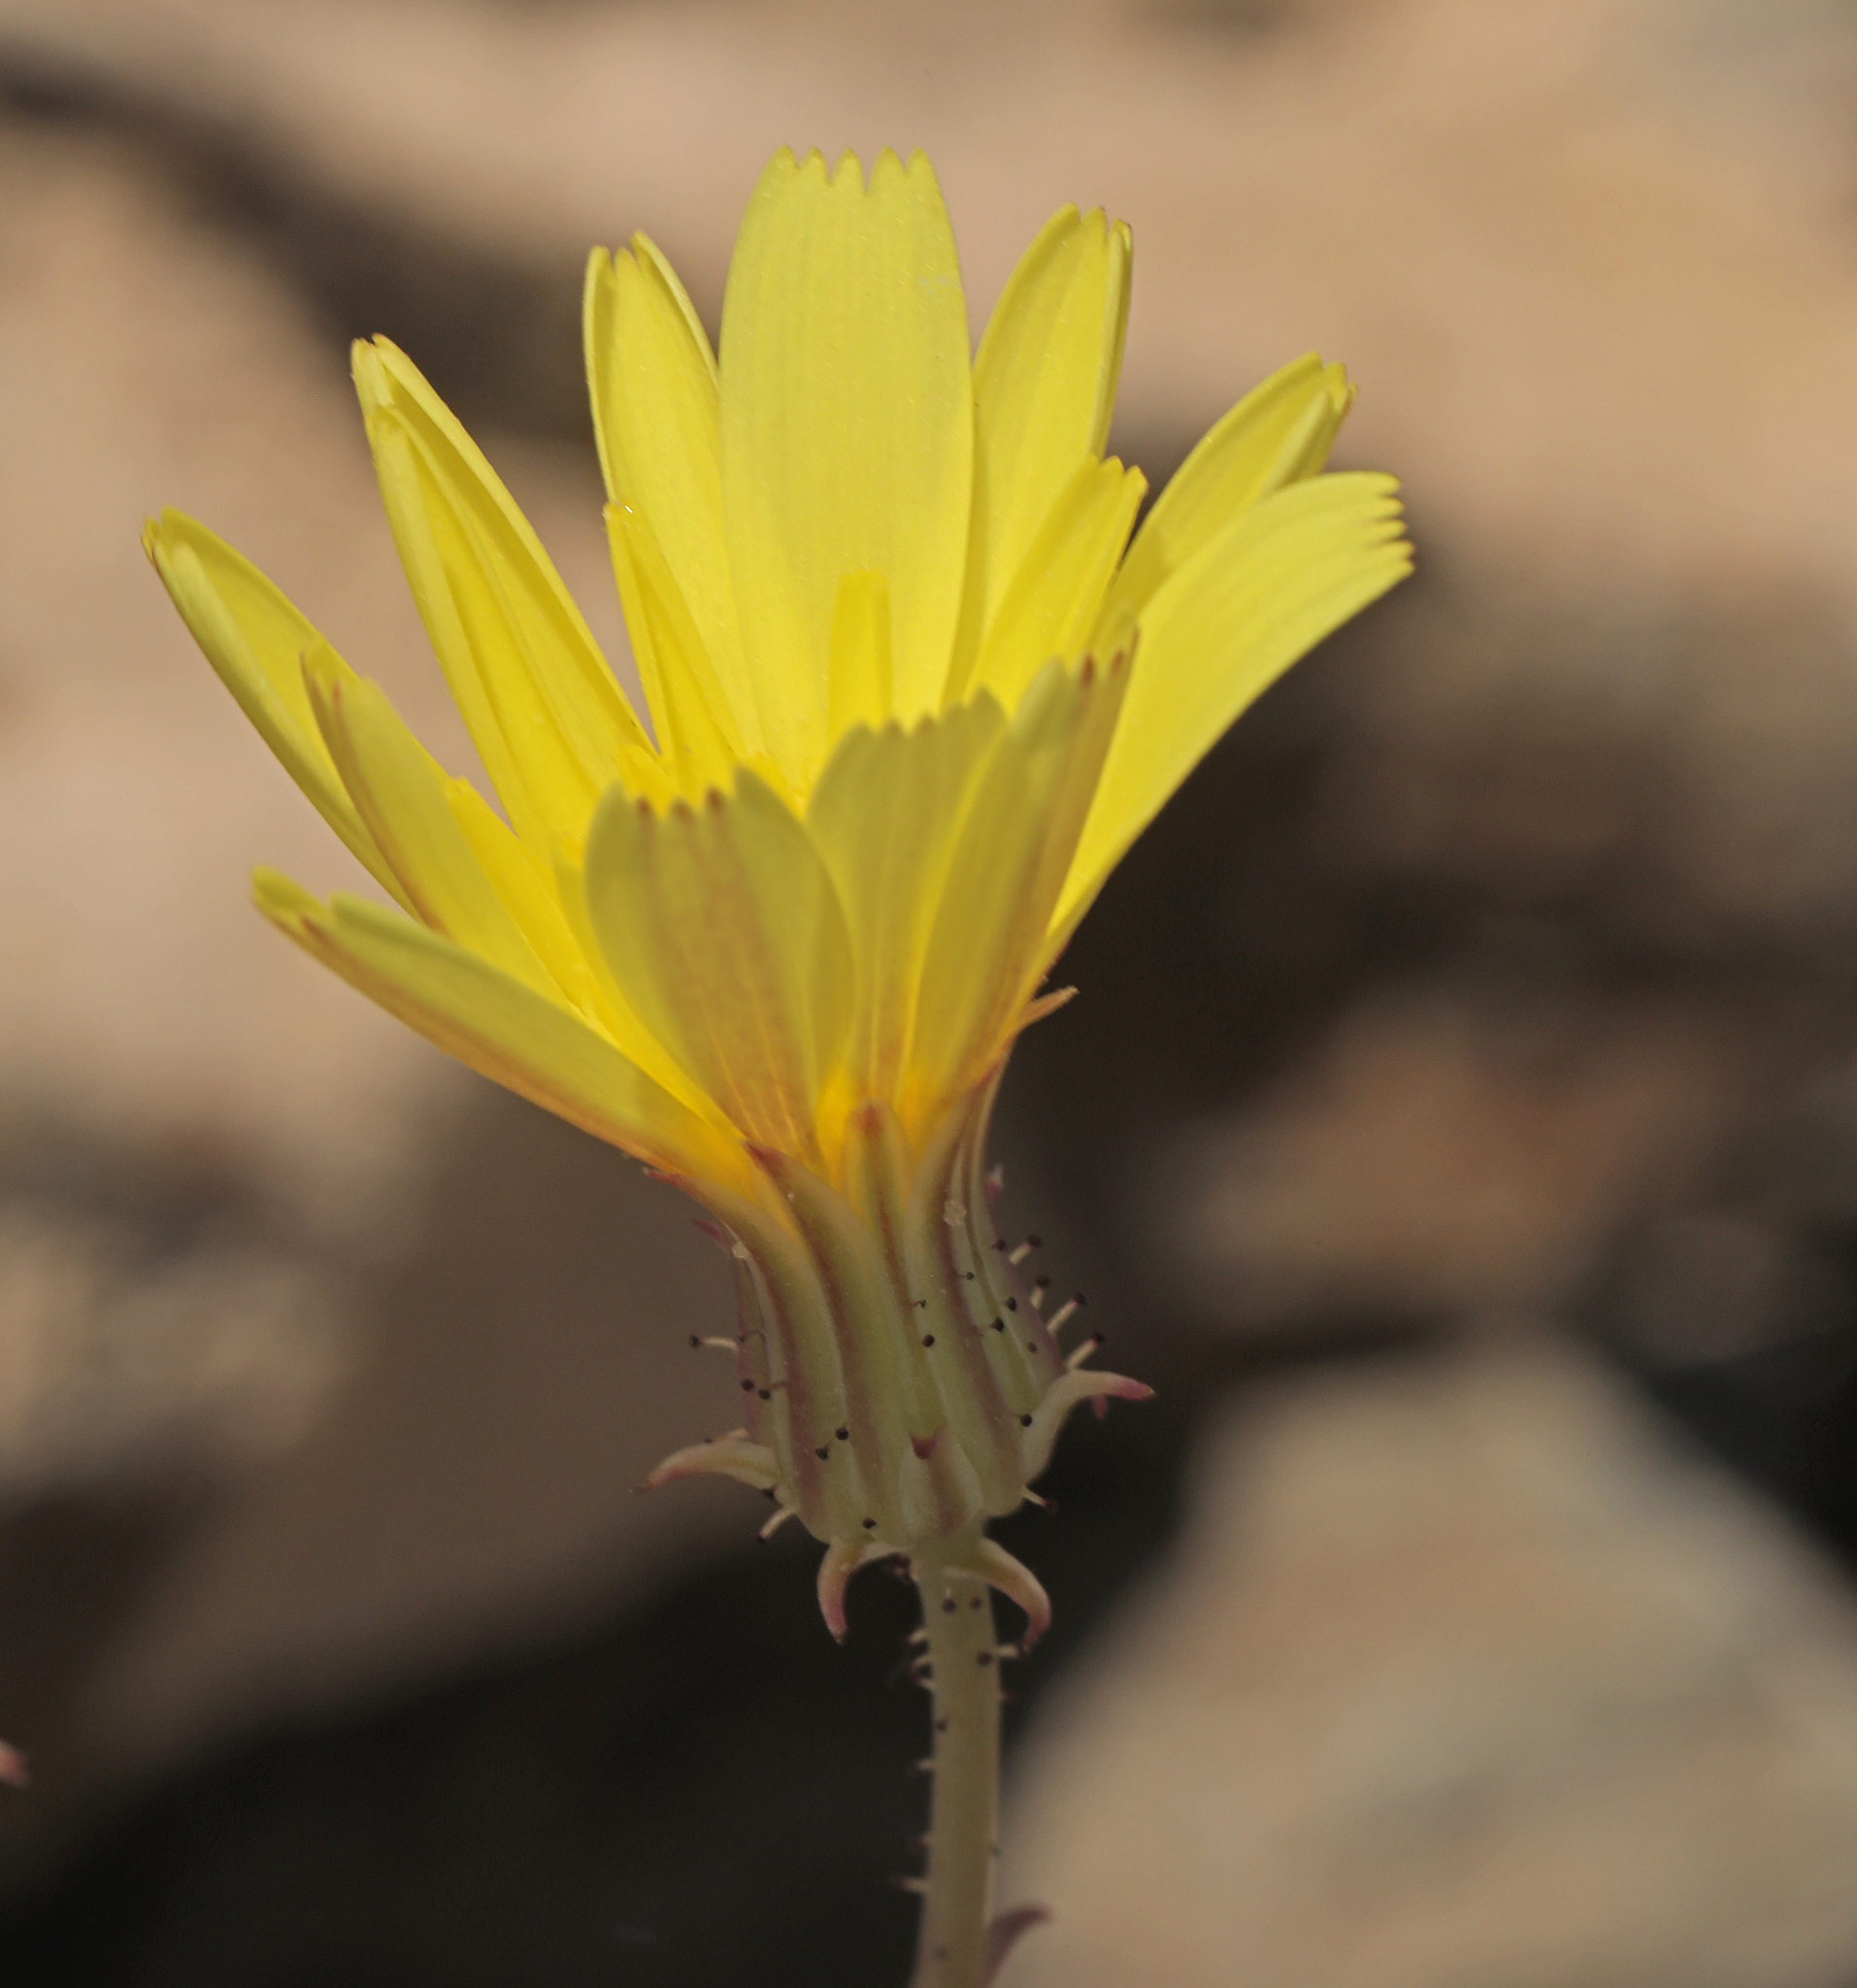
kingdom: Plantae
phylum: Tracheophyta
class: Magnoliopsida
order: Asterales
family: Asteraceae
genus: Calycoseris
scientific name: Calycoseris parryi
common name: Yellow tackstem
